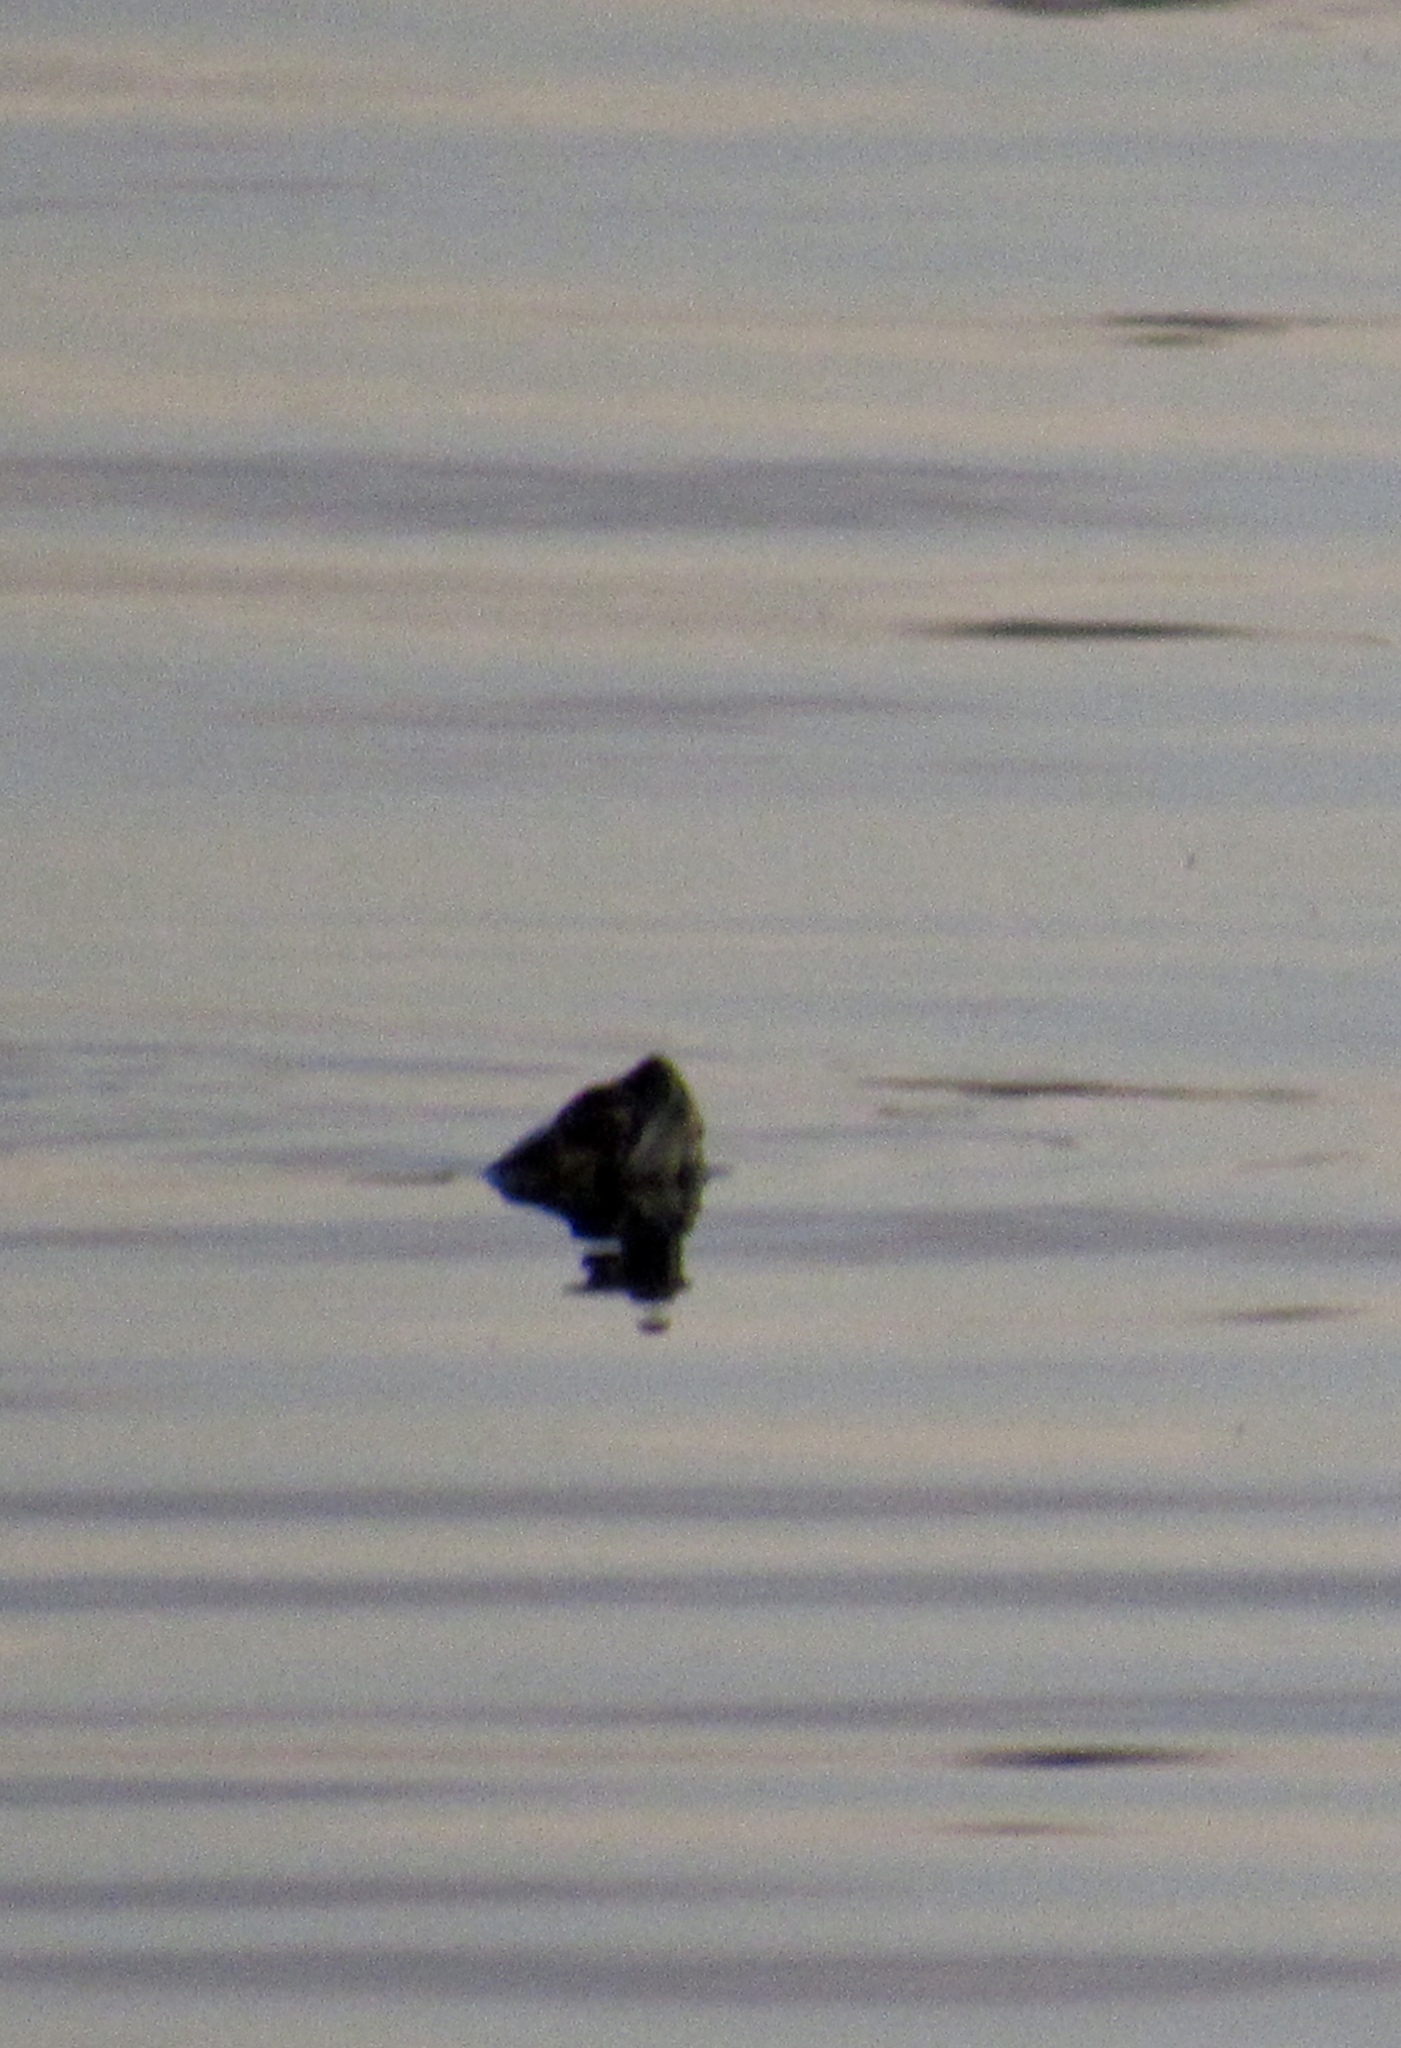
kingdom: Animalia
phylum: Chordata
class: Testudines
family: Emydidae
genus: Trachemys
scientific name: Trachemys scripta
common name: Slider
